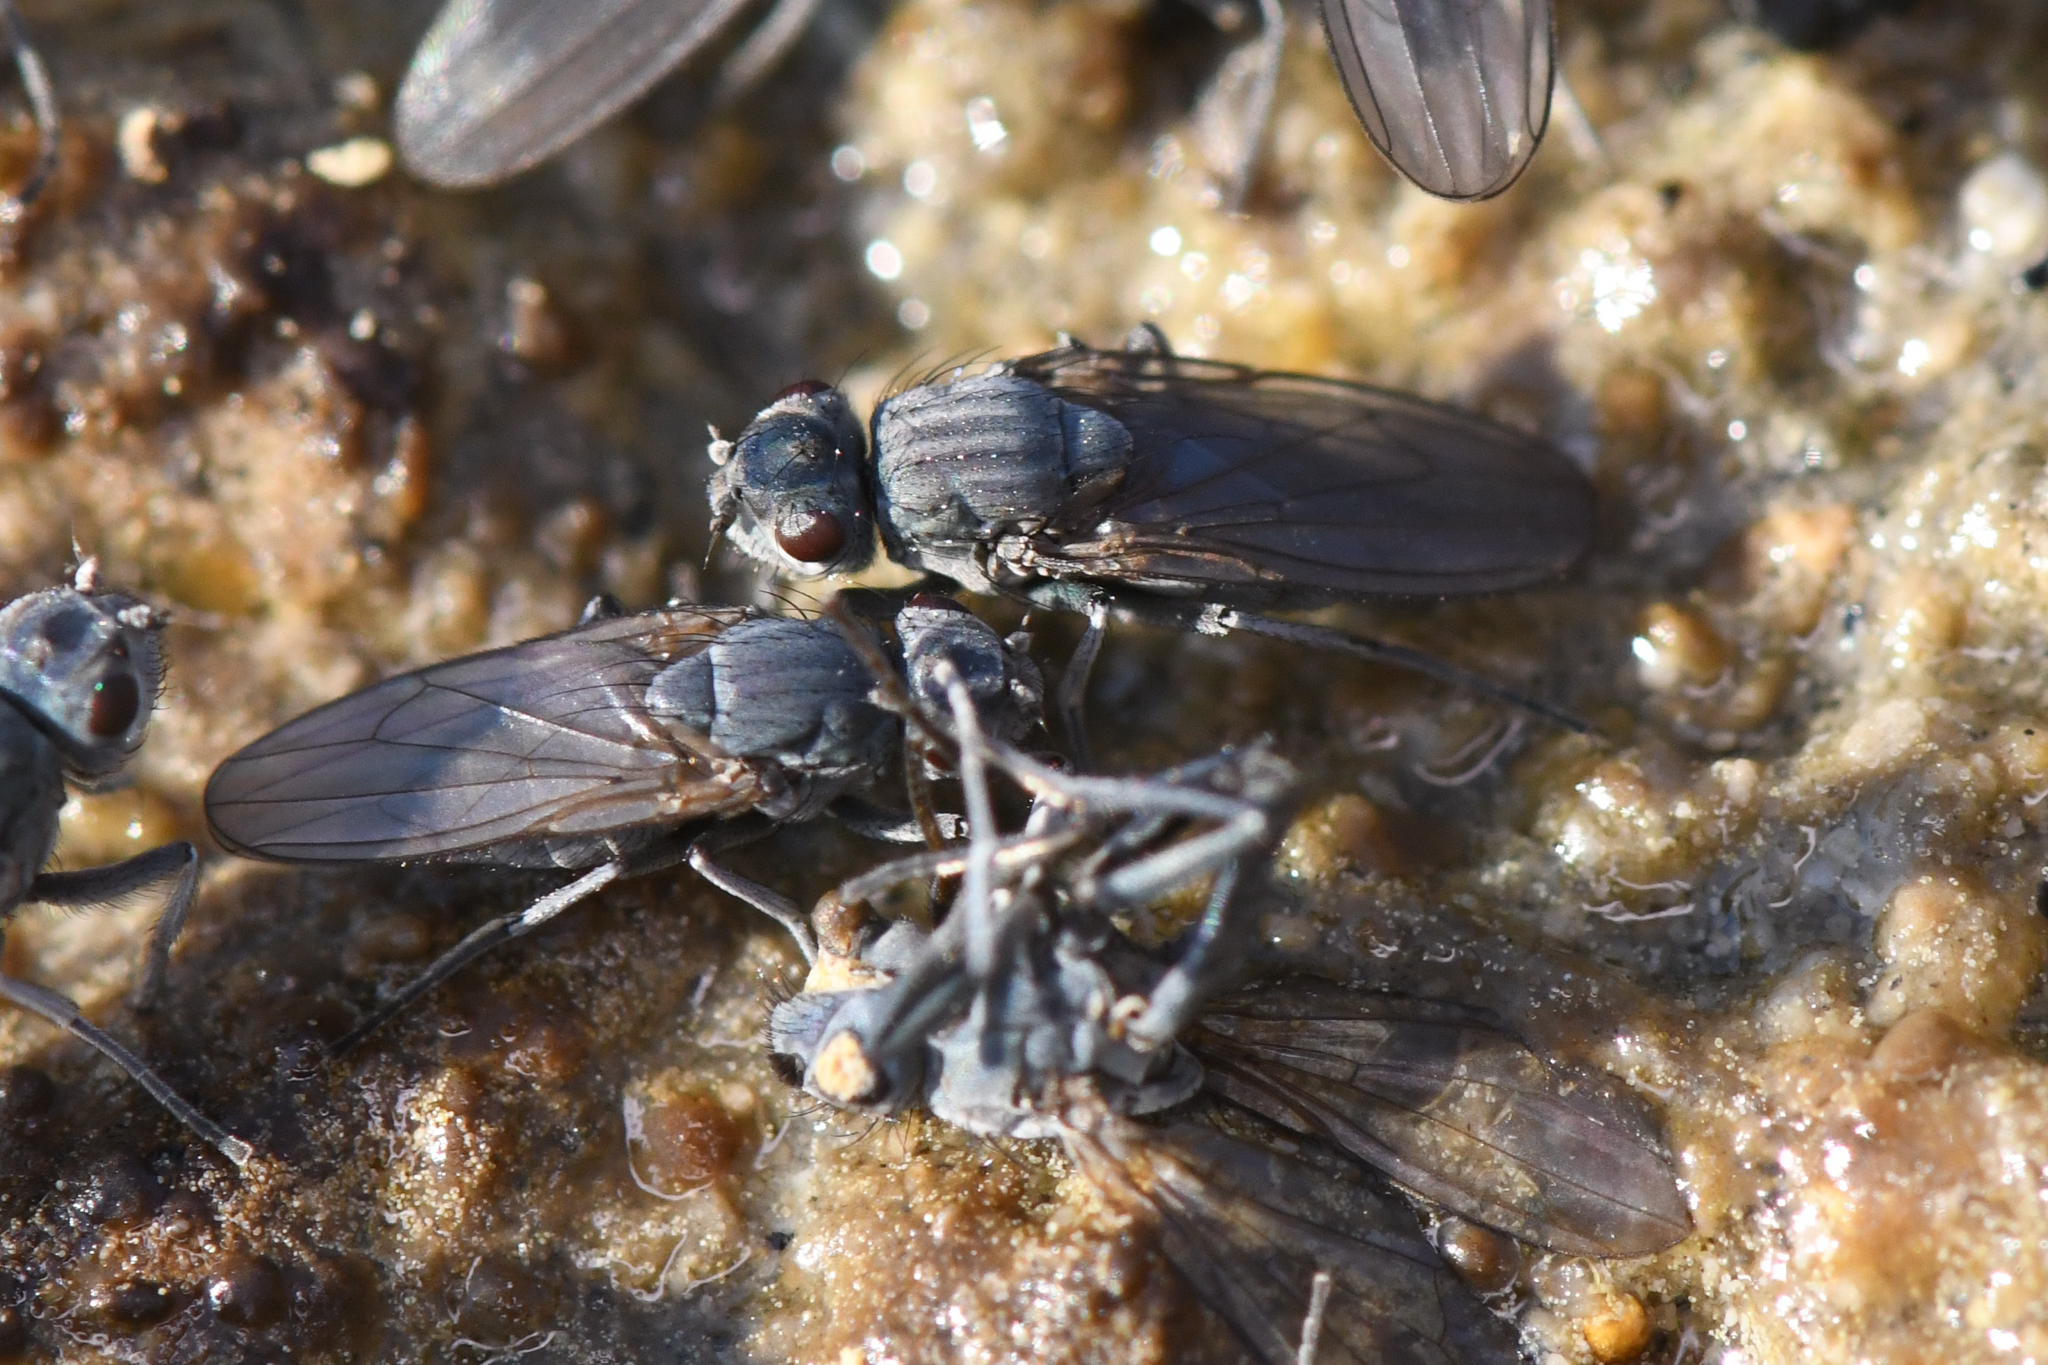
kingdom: Animalia
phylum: Arthropoda
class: Insecta
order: Diptera
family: Ephydridae
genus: Cirrula
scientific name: Cirrula hians
